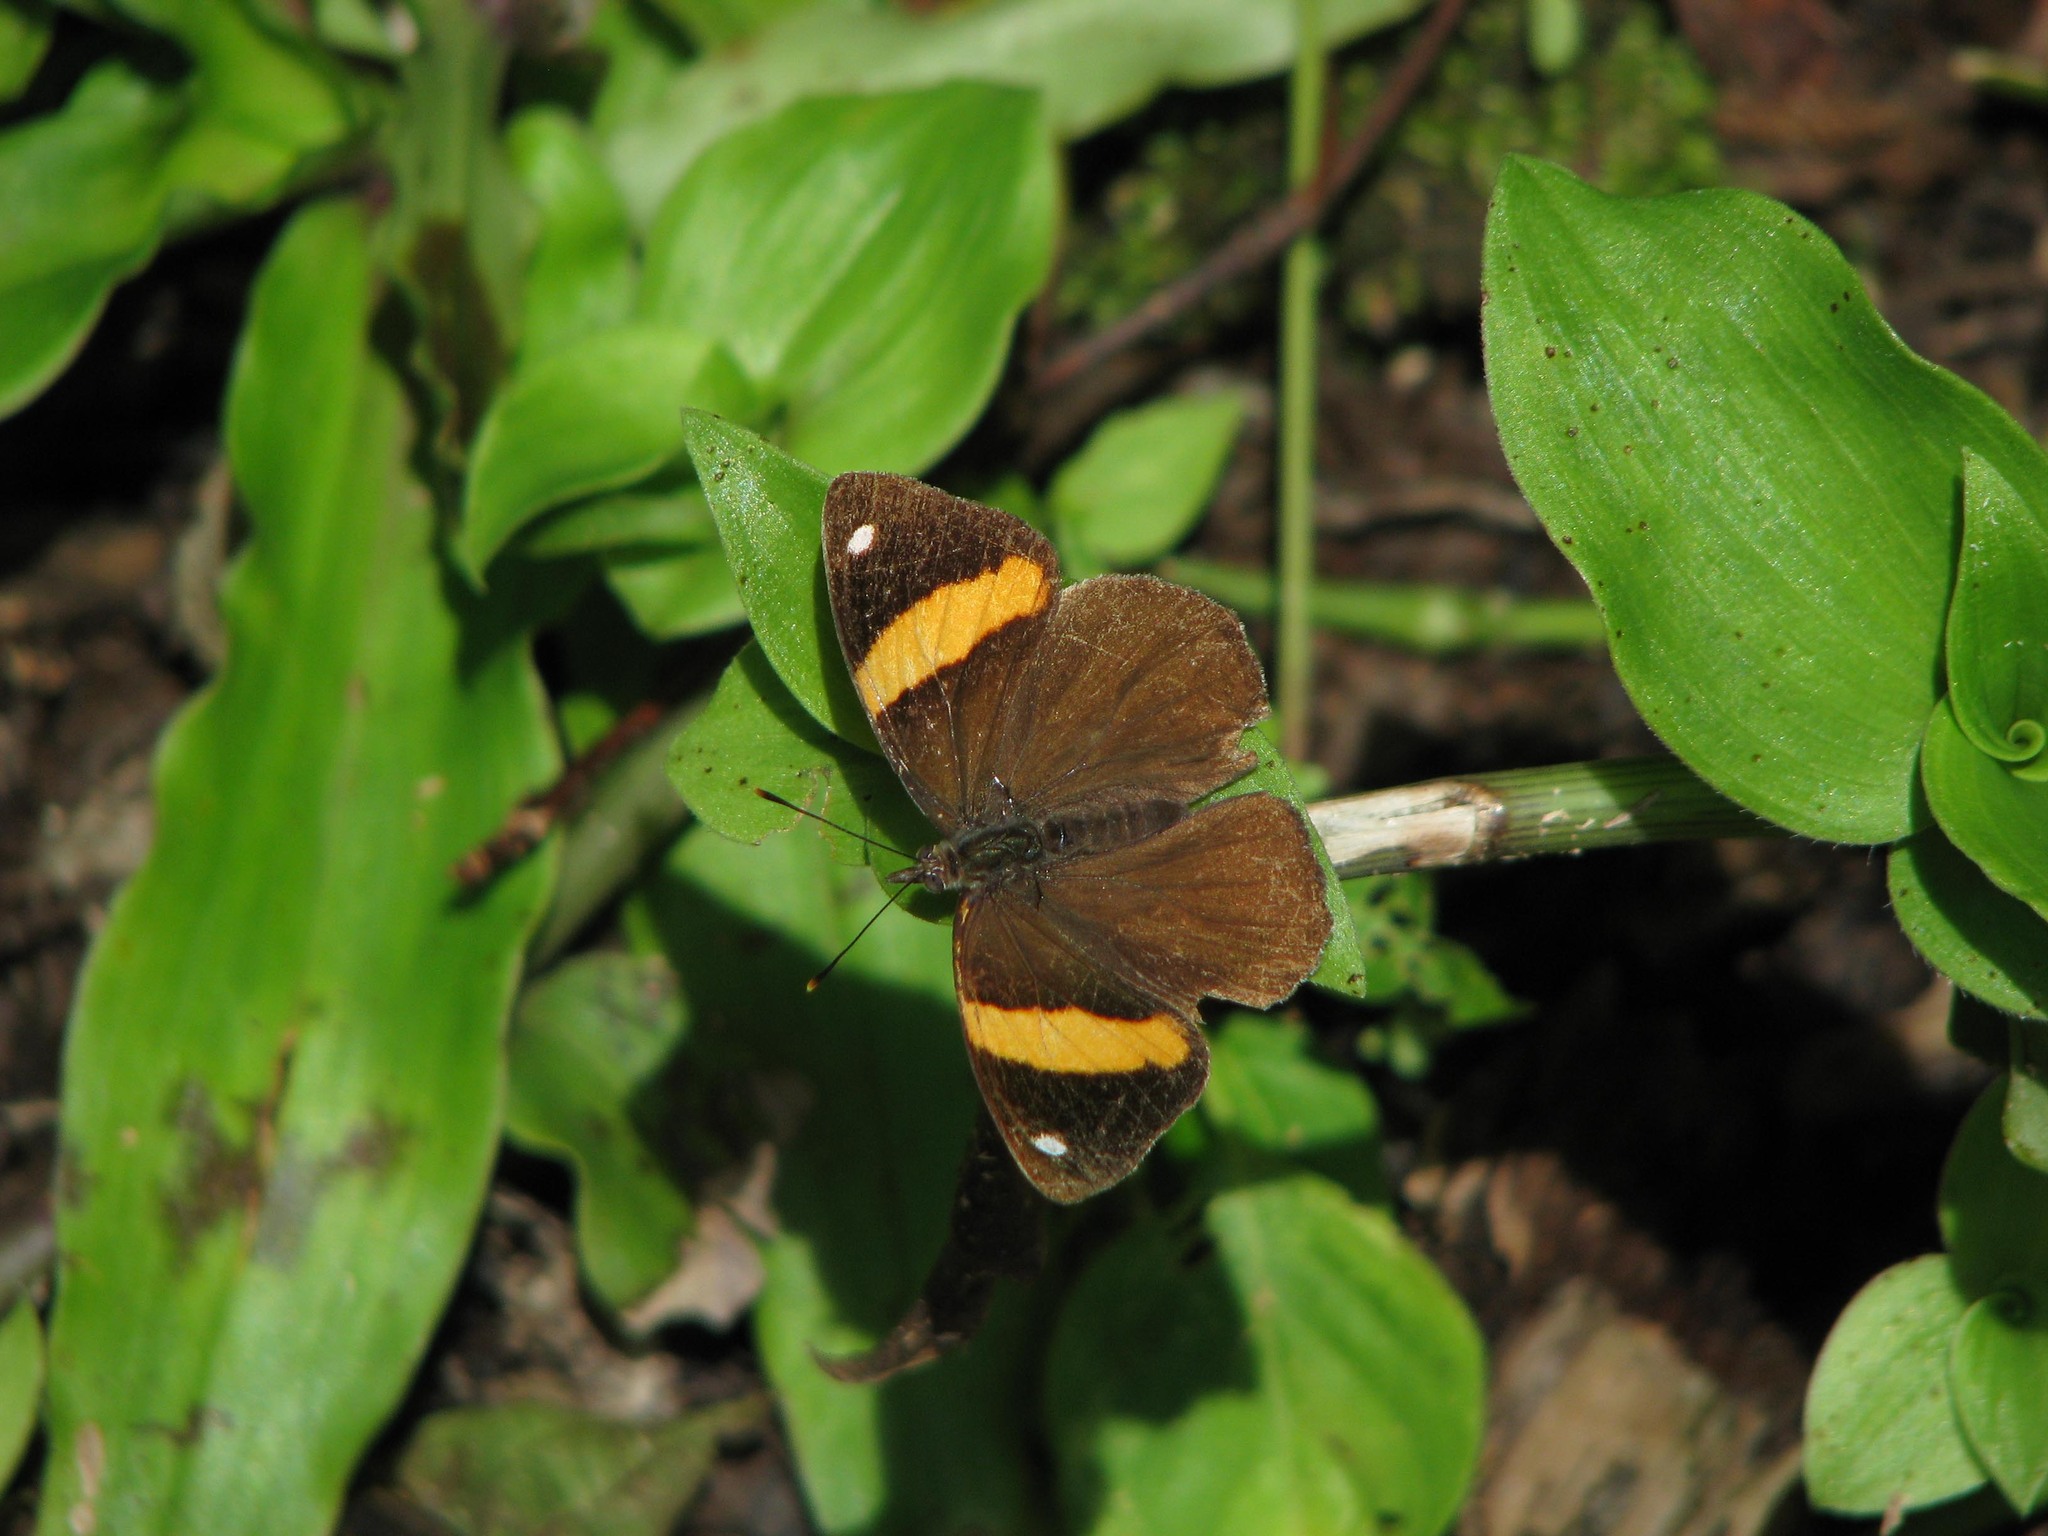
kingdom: Animalia
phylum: Arthropoda
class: Insecta
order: Lepidoptera
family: Nymphalidae
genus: Diaethria
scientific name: Diaethria pandama
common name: Orange-striped eighty-eight
